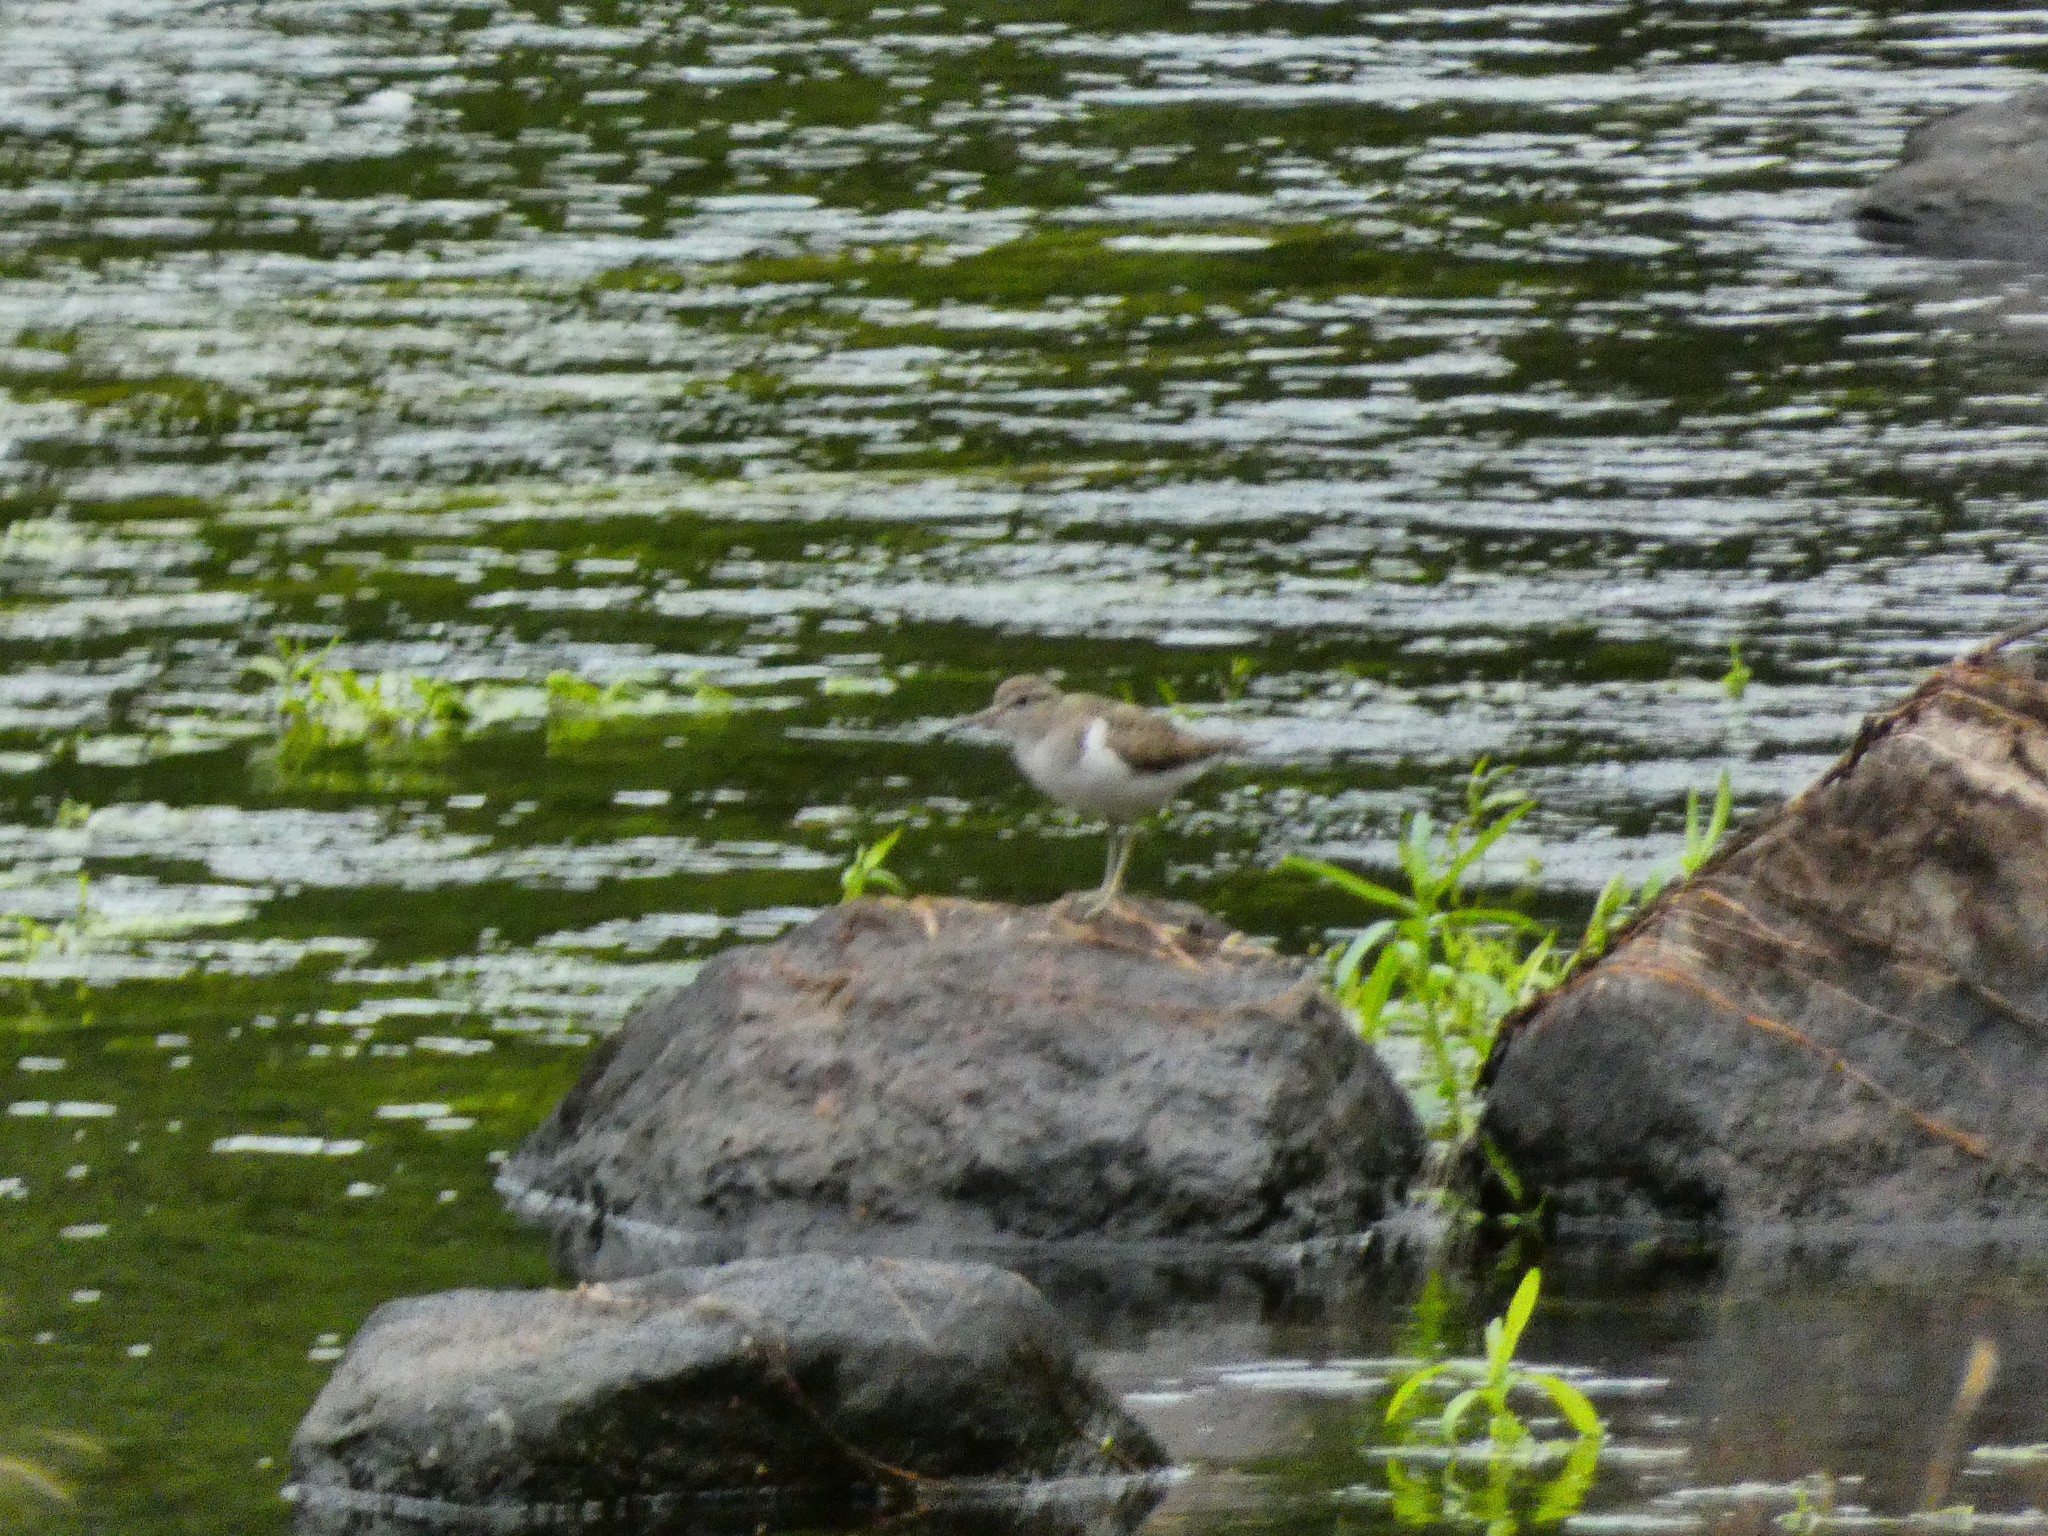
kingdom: Animalia
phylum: Chordata
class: Aves
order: Charadriiformes
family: Scolopacidae
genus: Actitis
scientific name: Actitis hypoleucos
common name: Common sandpiper
